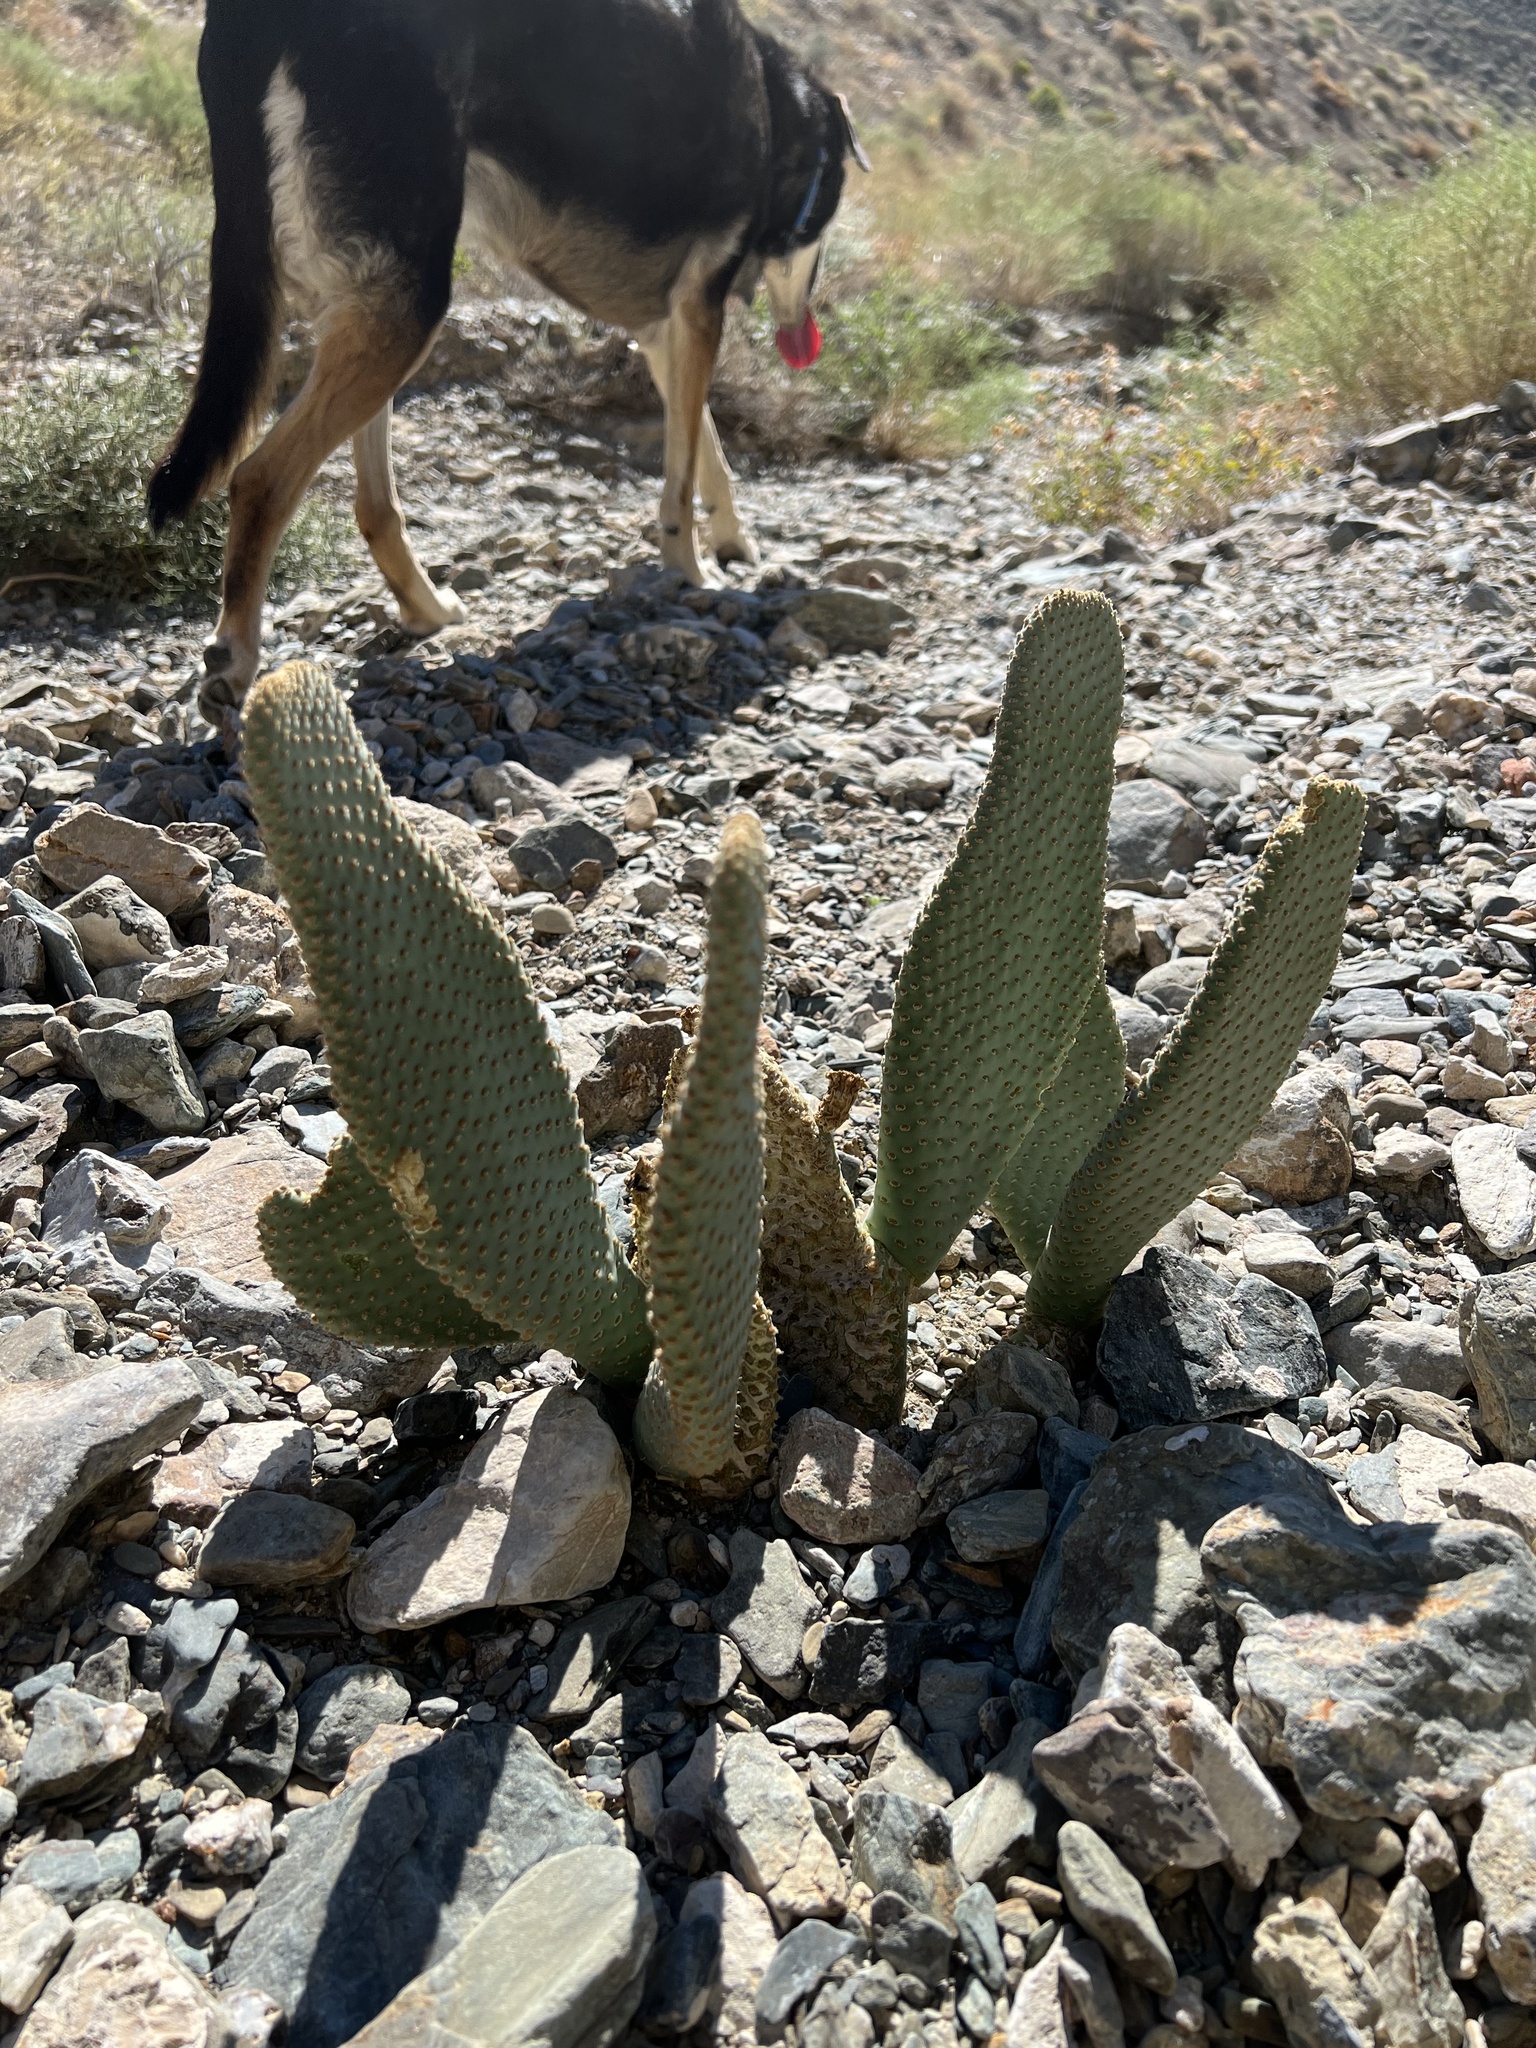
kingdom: Plantae
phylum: Tracheophyta
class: Magnoliopsida
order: Caryophyllales
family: Cactaceae
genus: Opuntia
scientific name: Opuntia basilaris
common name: Beavertail prickly-pear
